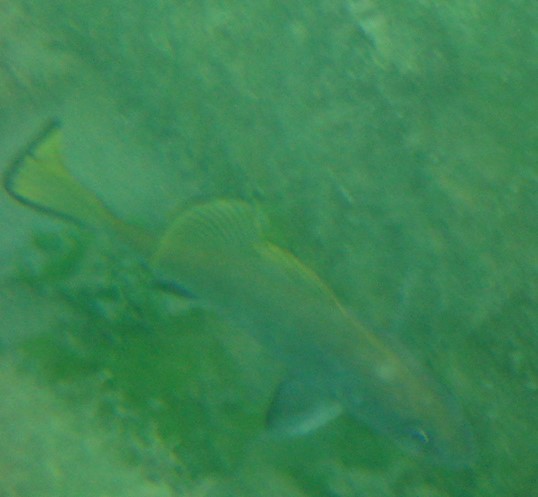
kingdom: Animalia
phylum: Chordata
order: Perciformes
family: Sciaenidae
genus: Sciaena
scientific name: Sciaena umbra
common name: Brown meagre
